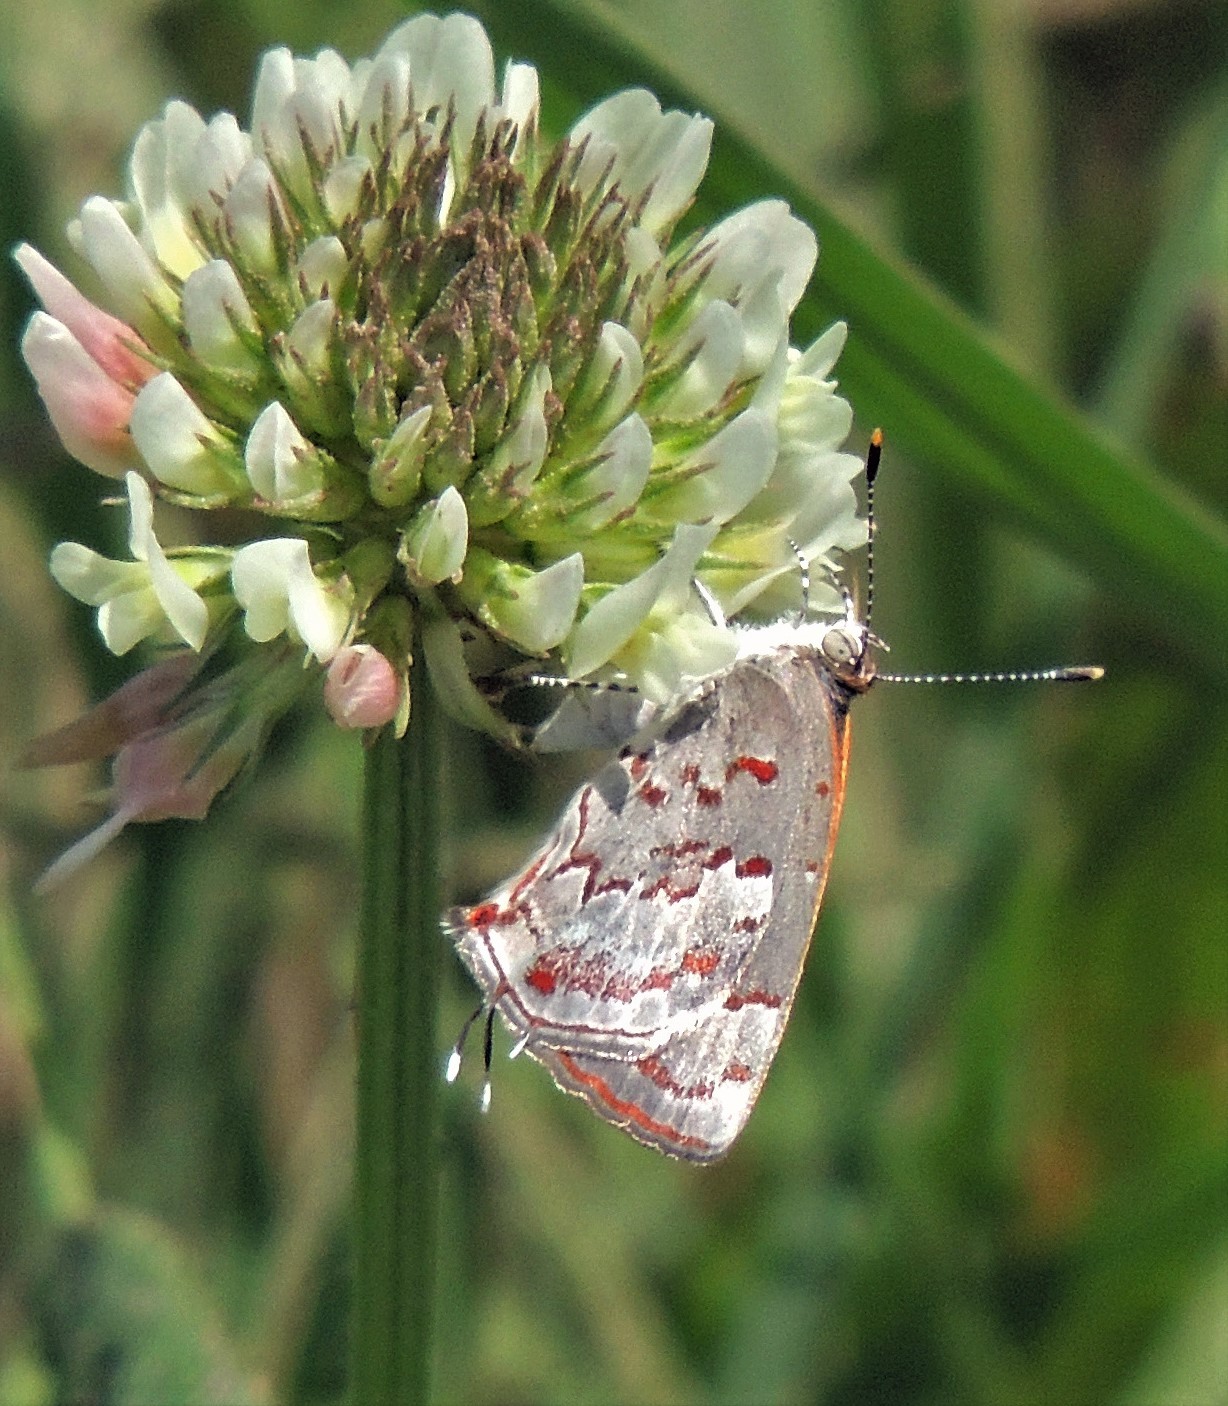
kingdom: Animalia
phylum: Arthropoda
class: Insecta
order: Lepidoptera
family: Lycaenidae
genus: Thecla
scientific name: Thecla cruenta
